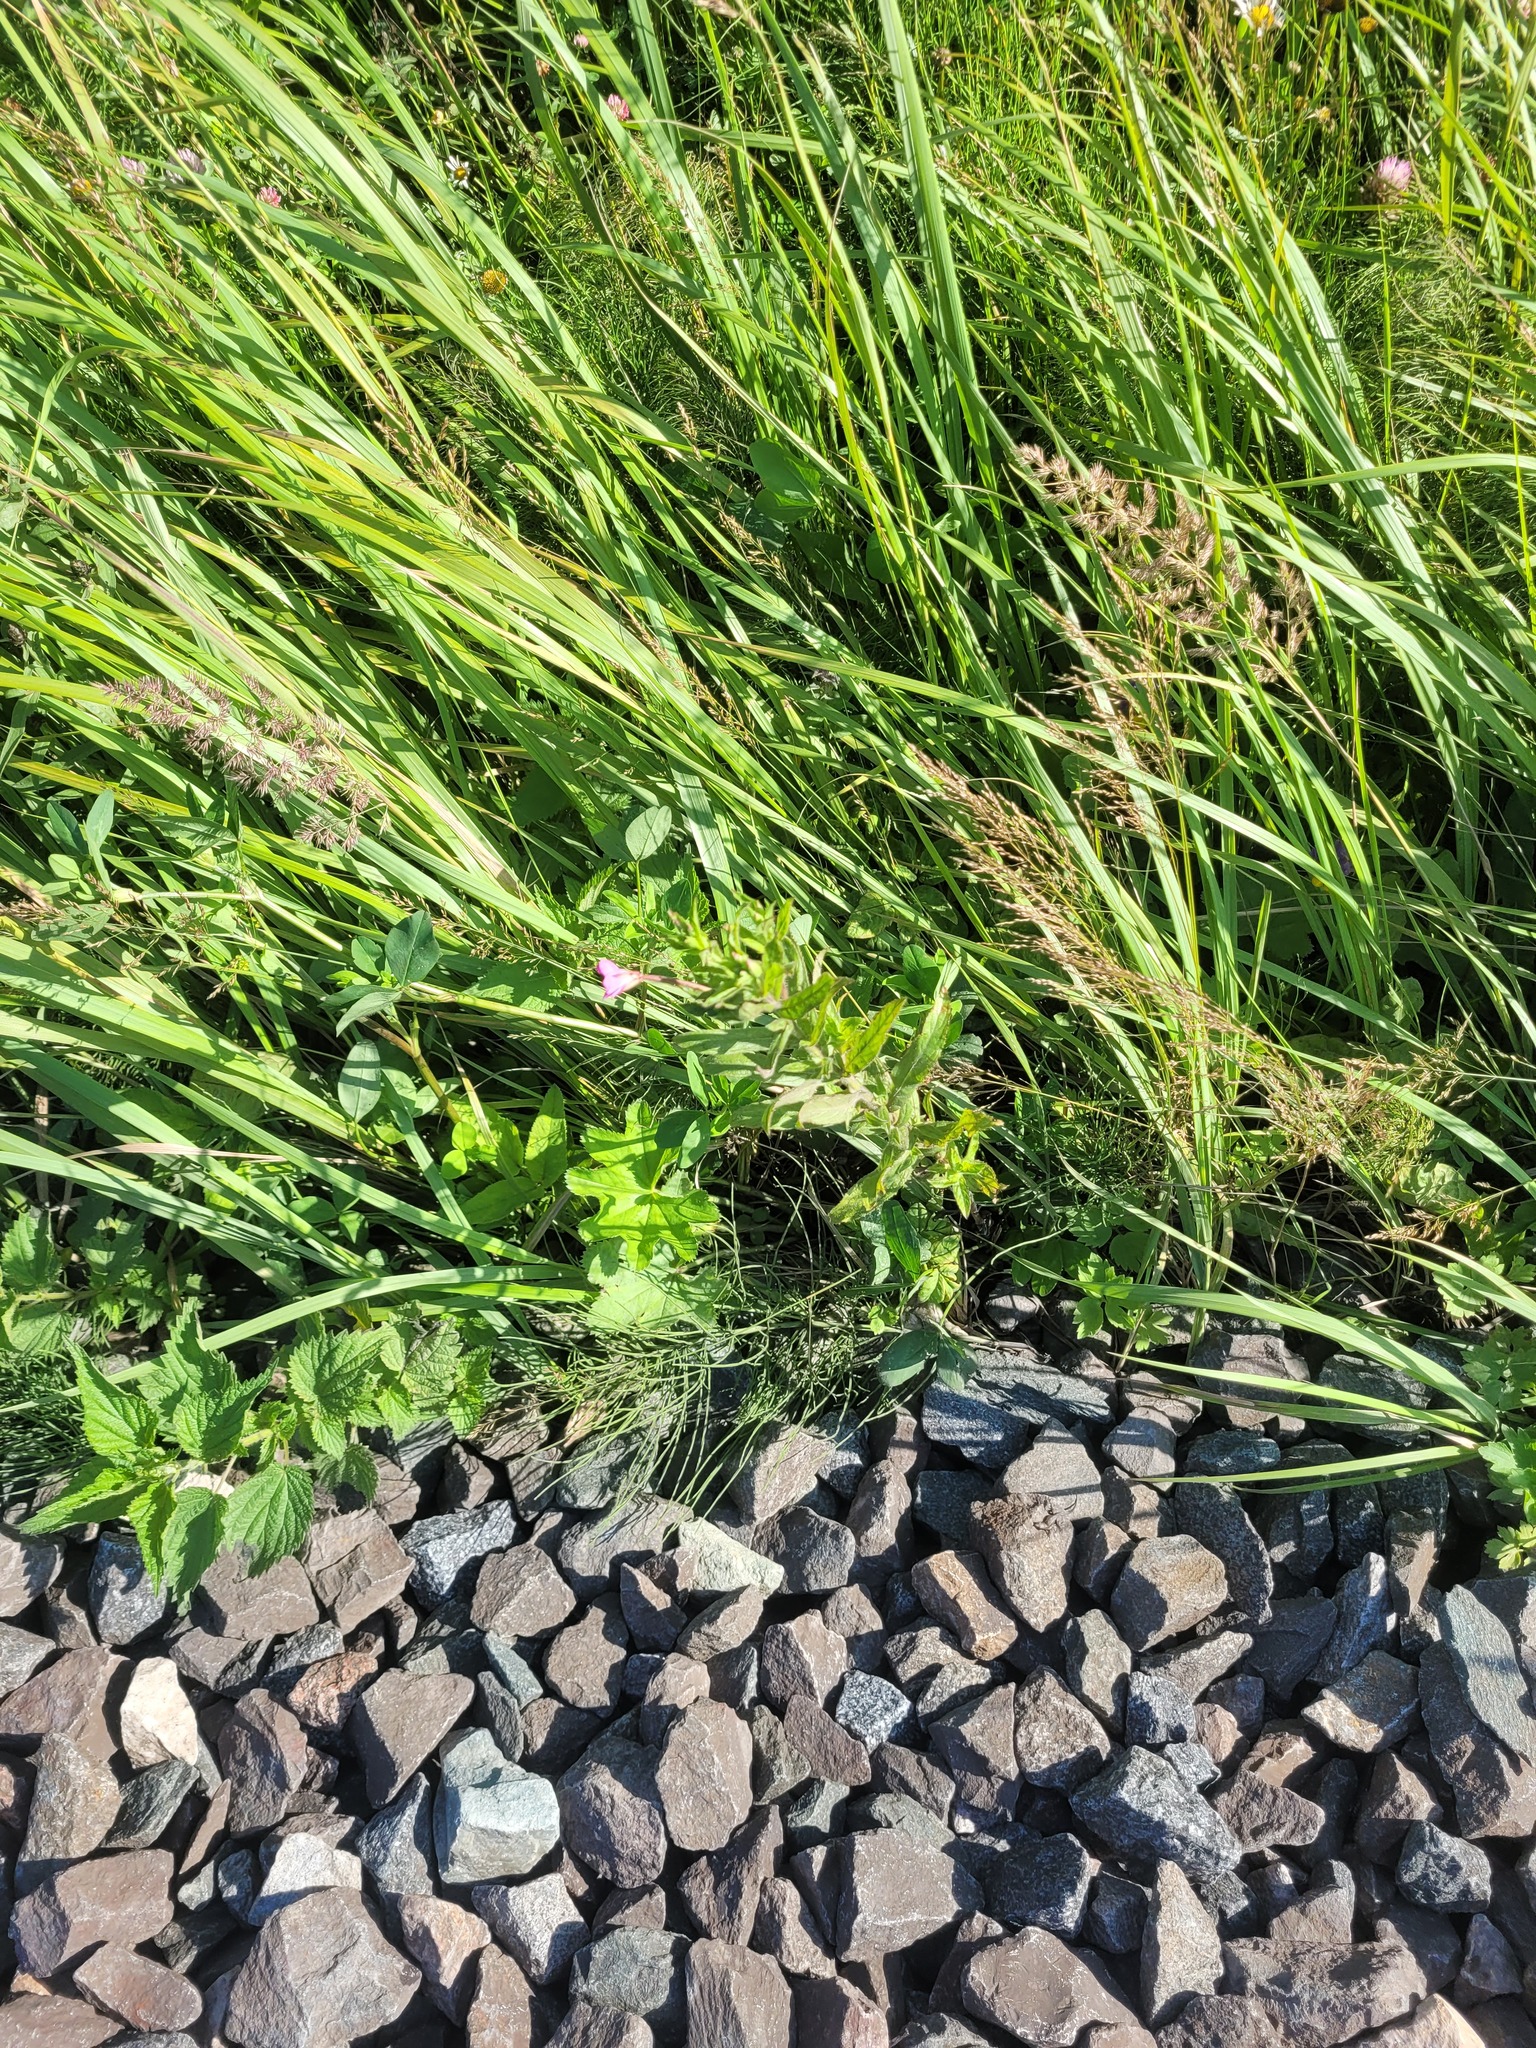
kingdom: Plantae
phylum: Tracheophyta
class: Magnoliopsida
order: Myrtales
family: Onagraceae
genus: Epilobium
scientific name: Epilobium hirsutum
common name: Great willowherb
